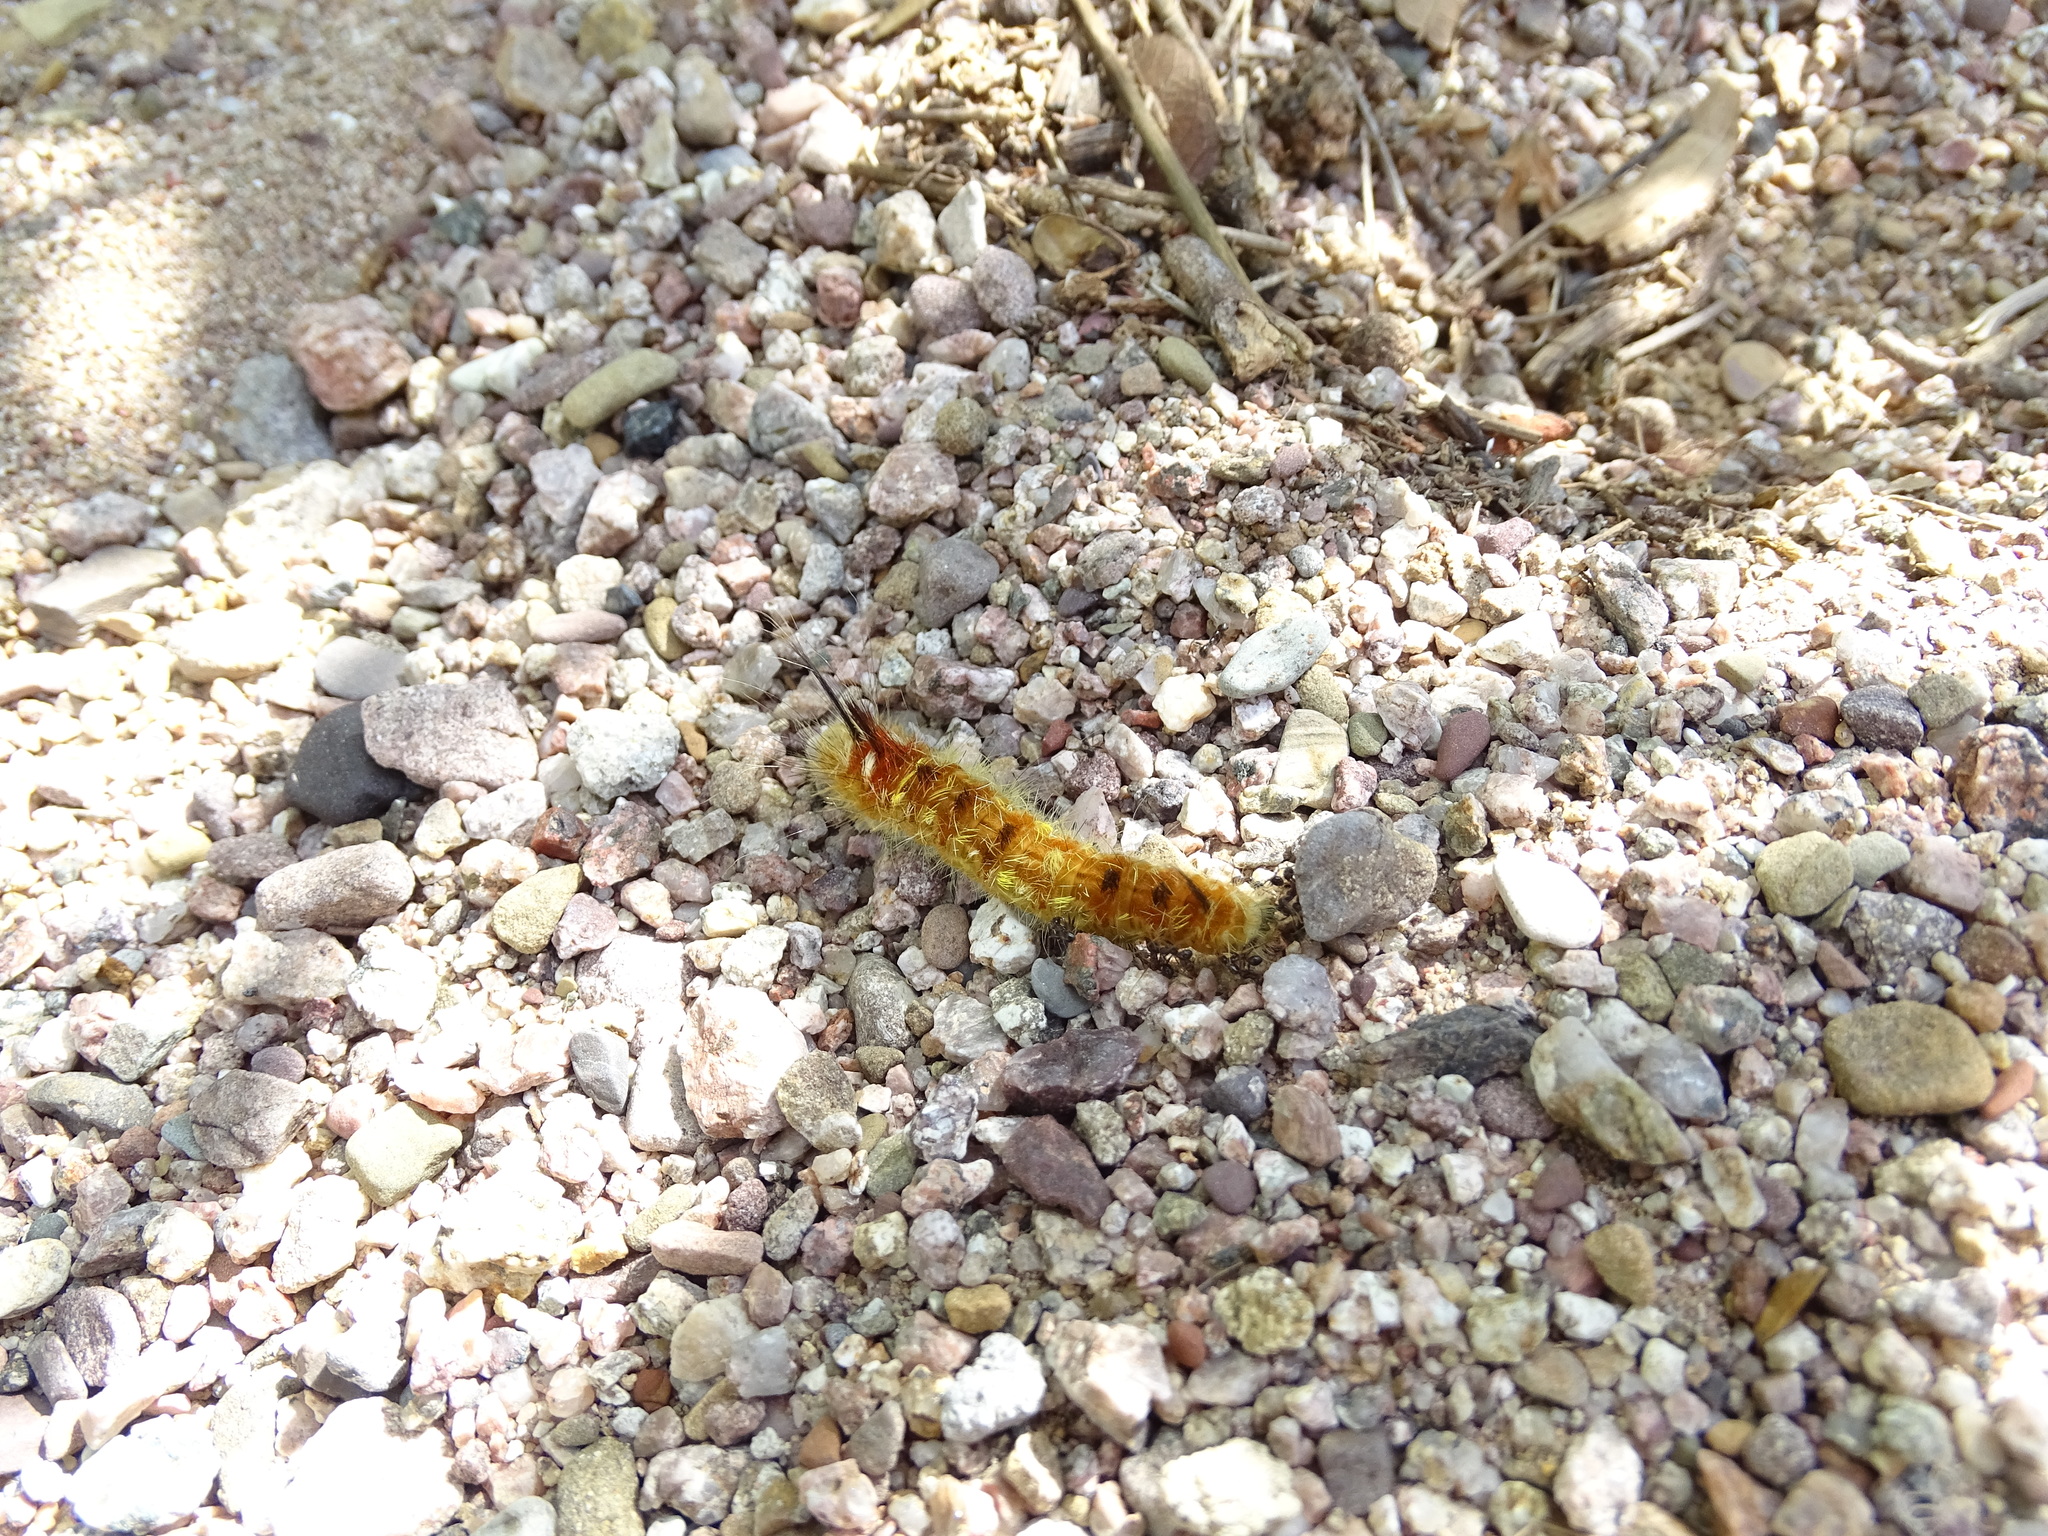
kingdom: Animalia
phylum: Arthropoda
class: Insecta
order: Lepidoptera
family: Apatelodidae
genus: Hygrochroa
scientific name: Hygrochroa Apatelodes pudefacta
